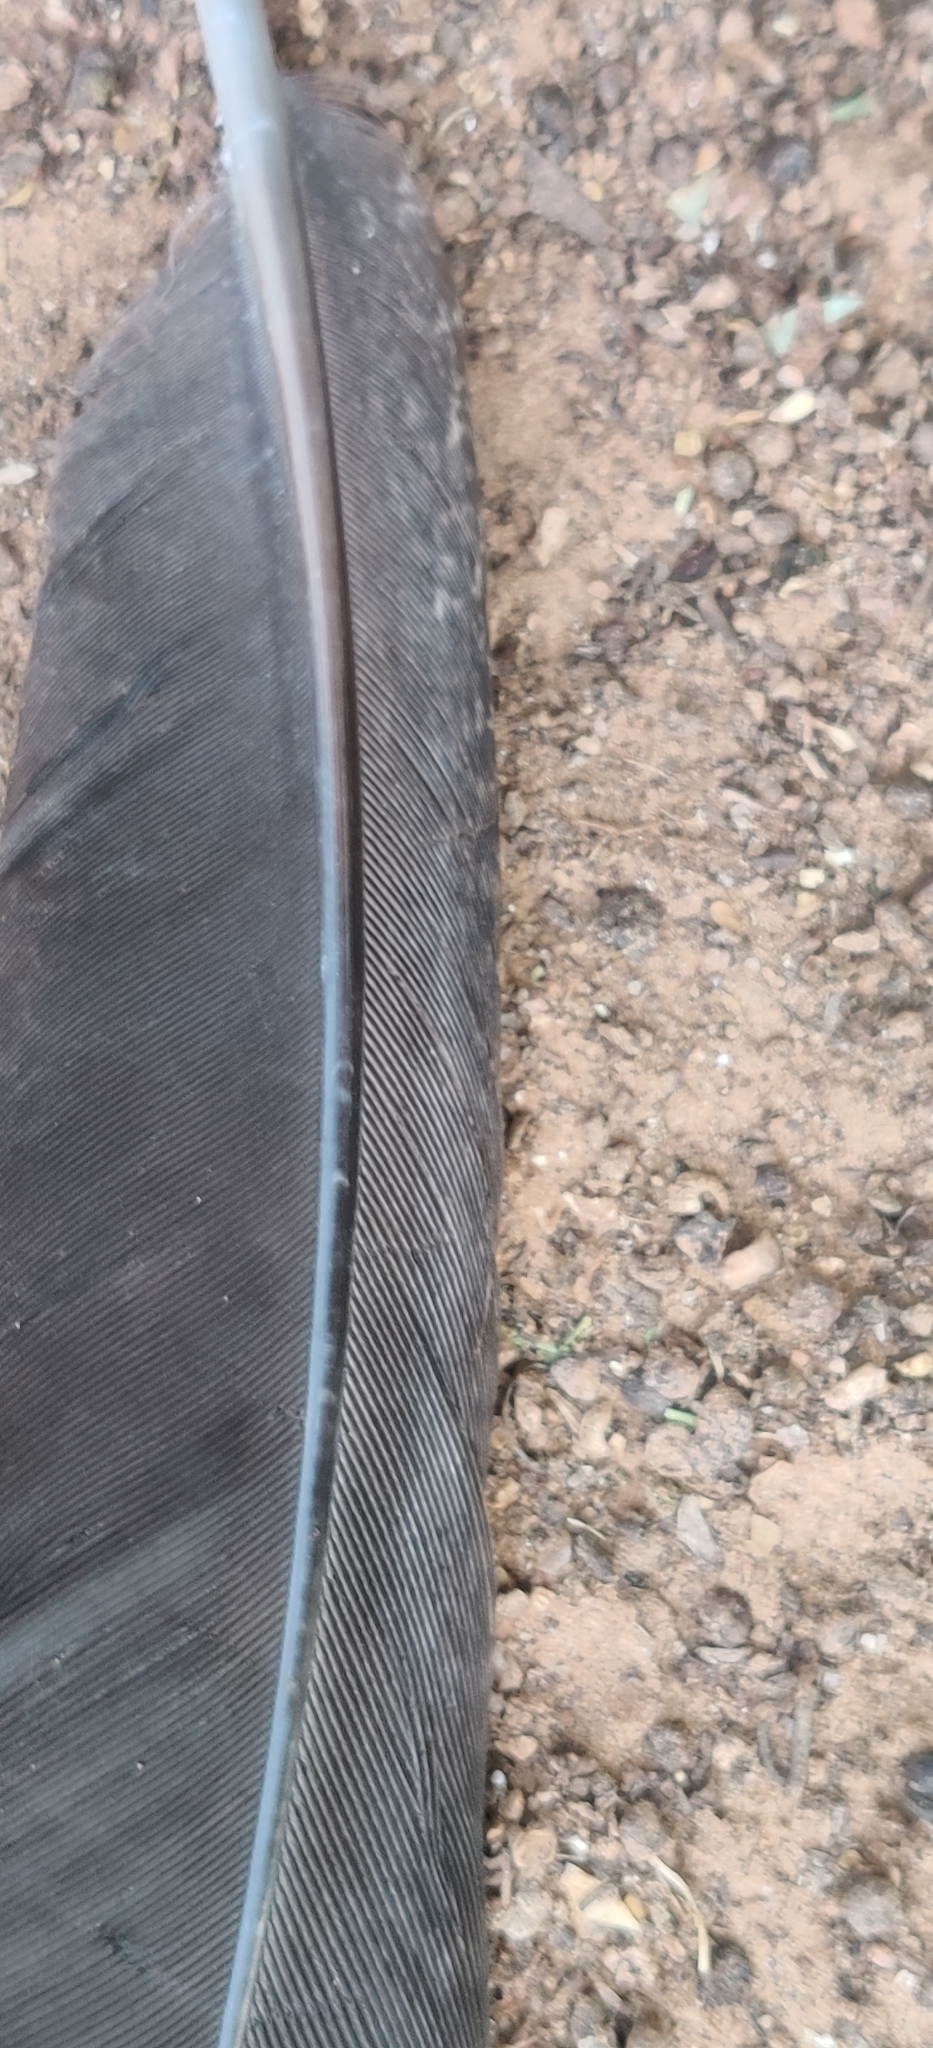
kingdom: Animalia
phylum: Chordata
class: Aves
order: Galliformes
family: Phasianidae
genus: Pavo
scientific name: Pavo cristatus
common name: Indian peafowl
